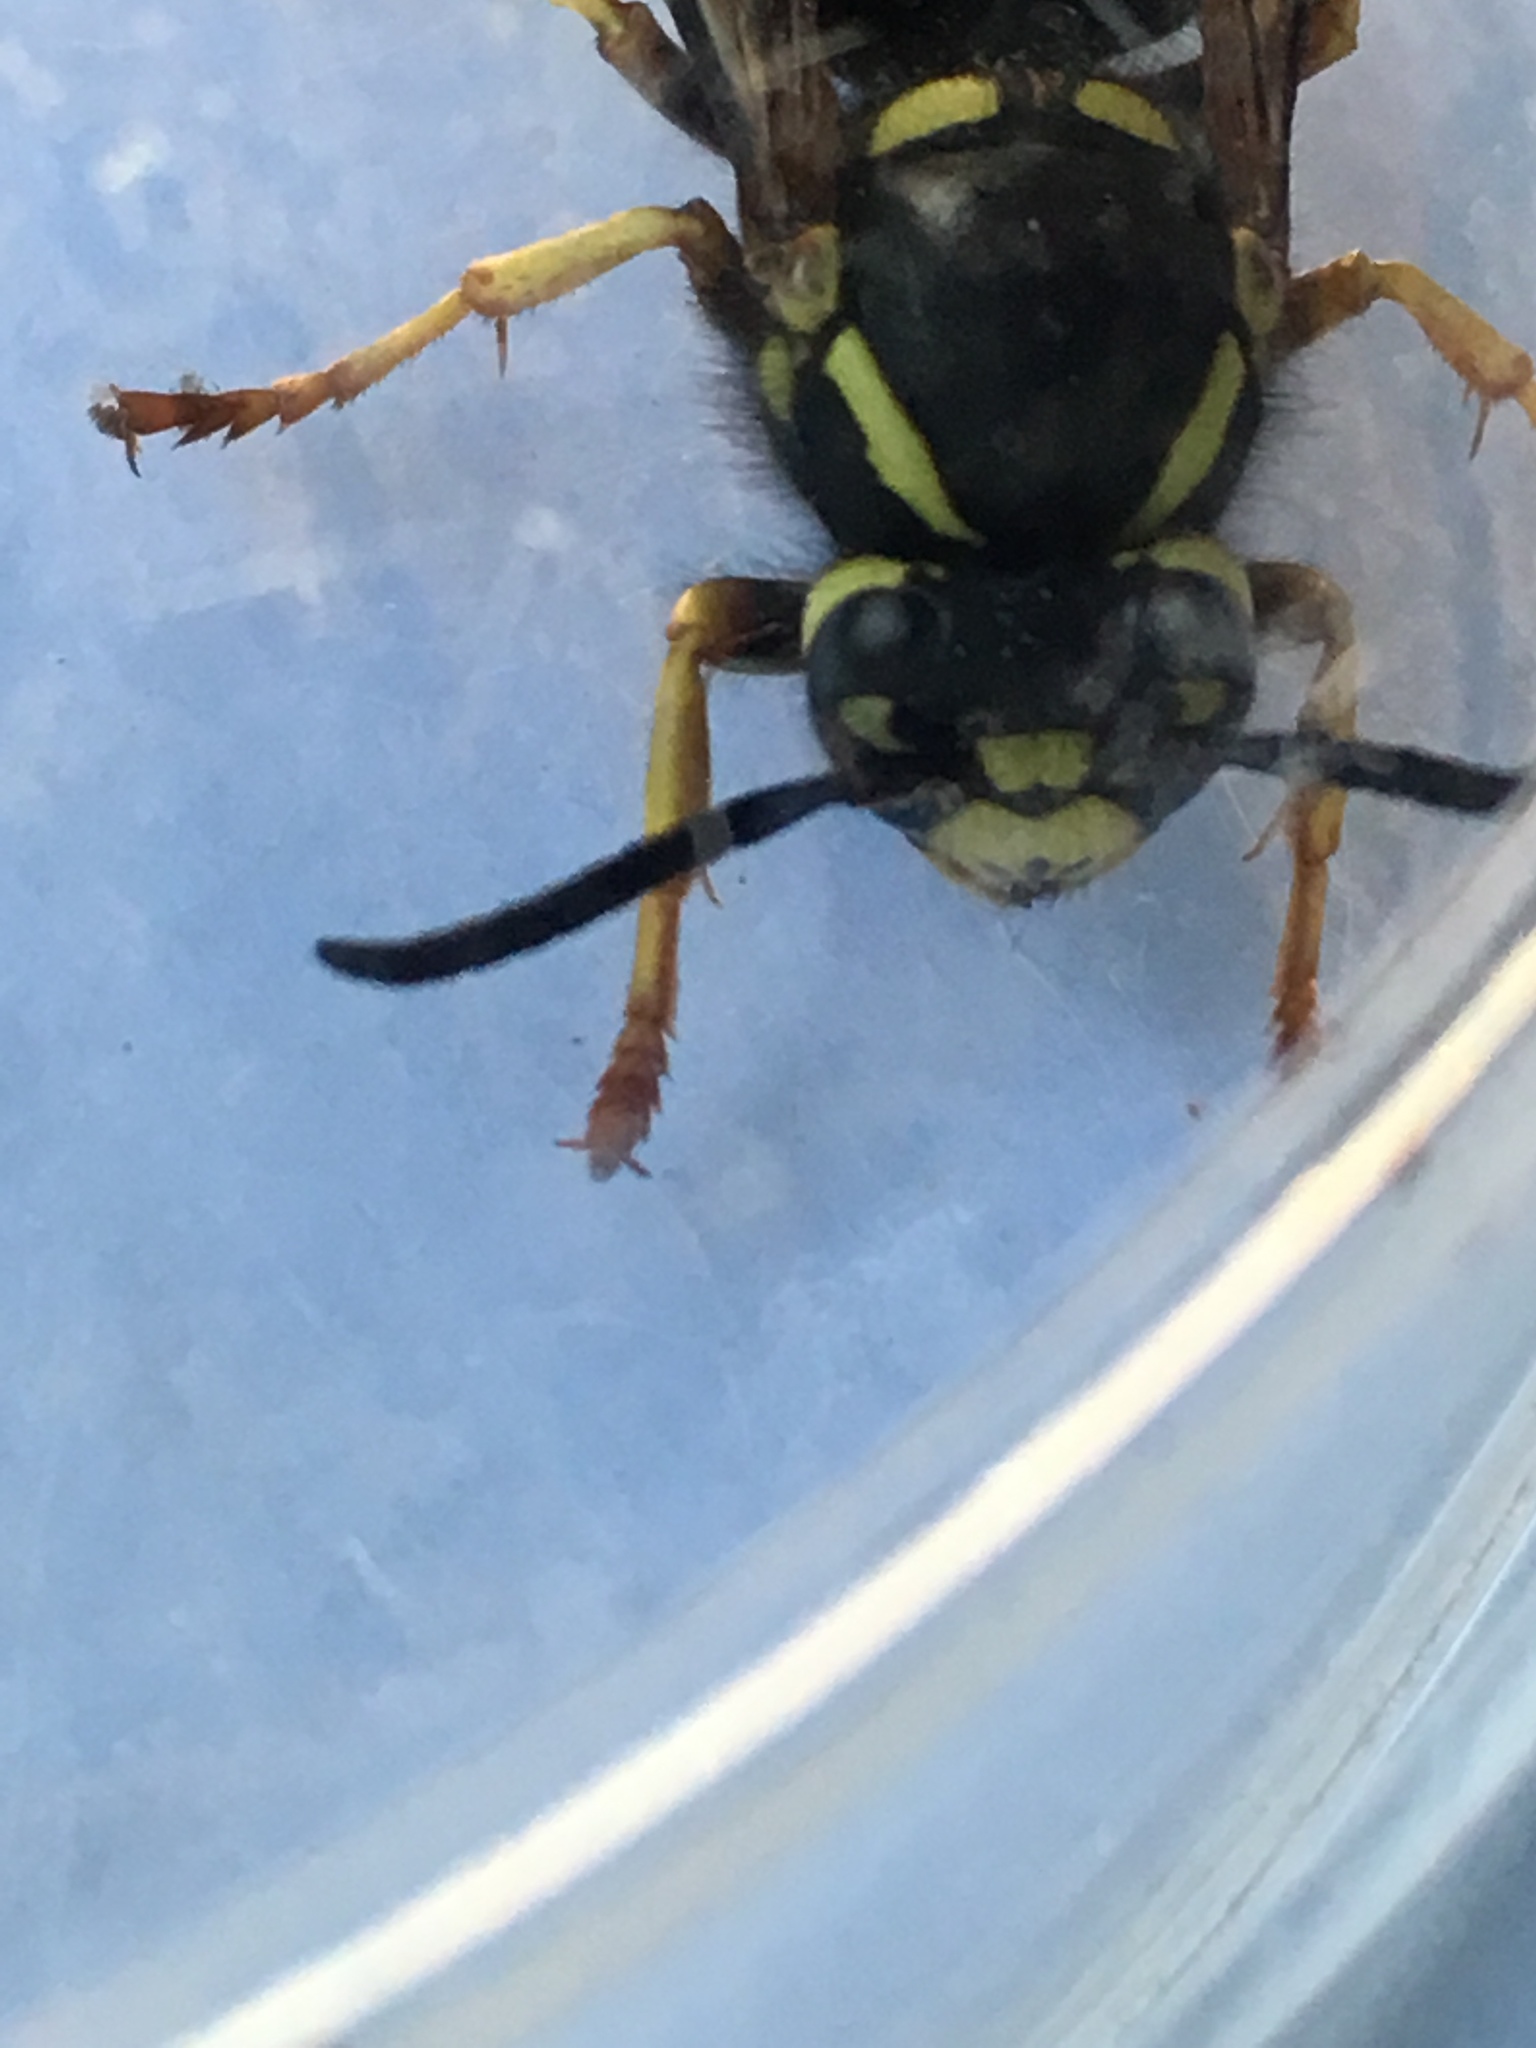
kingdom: Animalia
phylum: Arthropoda
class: Insecta
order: Hymenoptera
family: Vespidae
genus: Vespula
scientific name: Vespula vidua
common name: Widow yellowjacket
